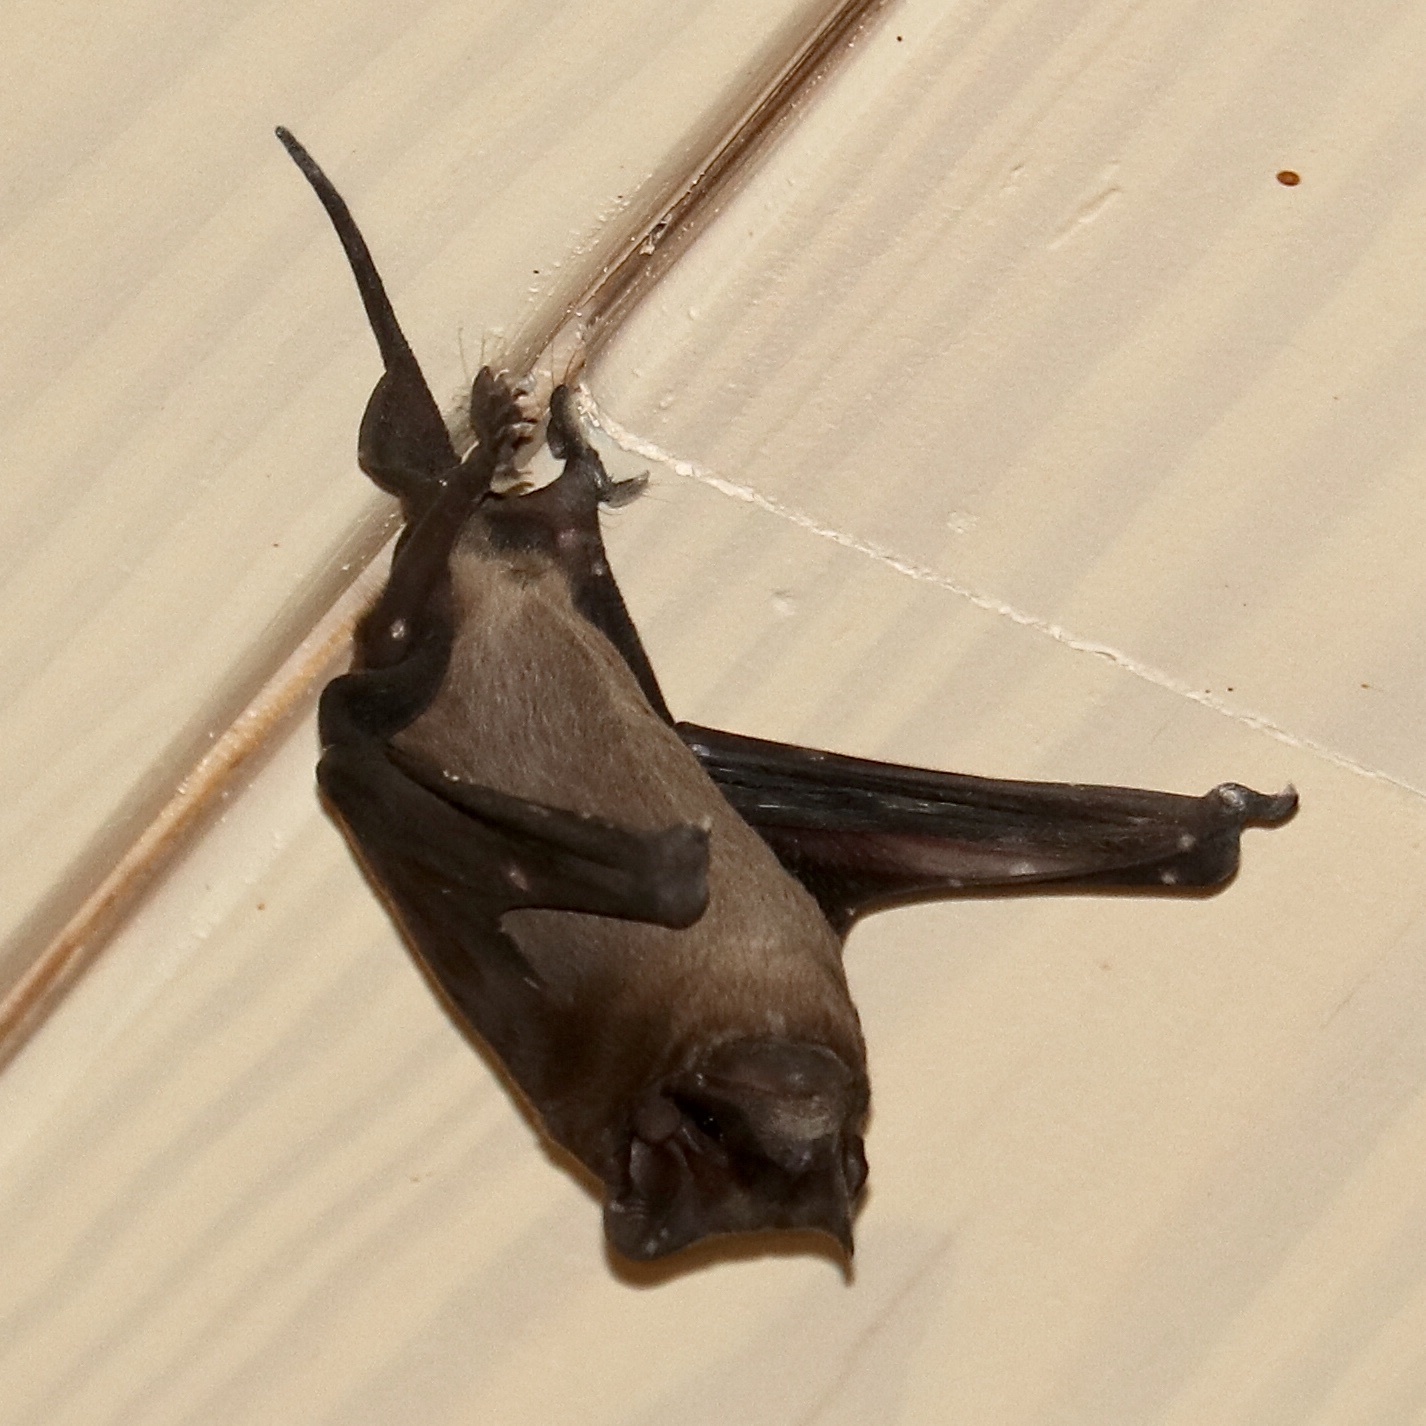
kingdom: Animalia
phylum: Chordata
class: Mammalia
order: Chiroptera
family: Molossidae
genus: Tadarida
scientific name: Tadarida brasiliensis
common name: Mexican free-tailed bat
